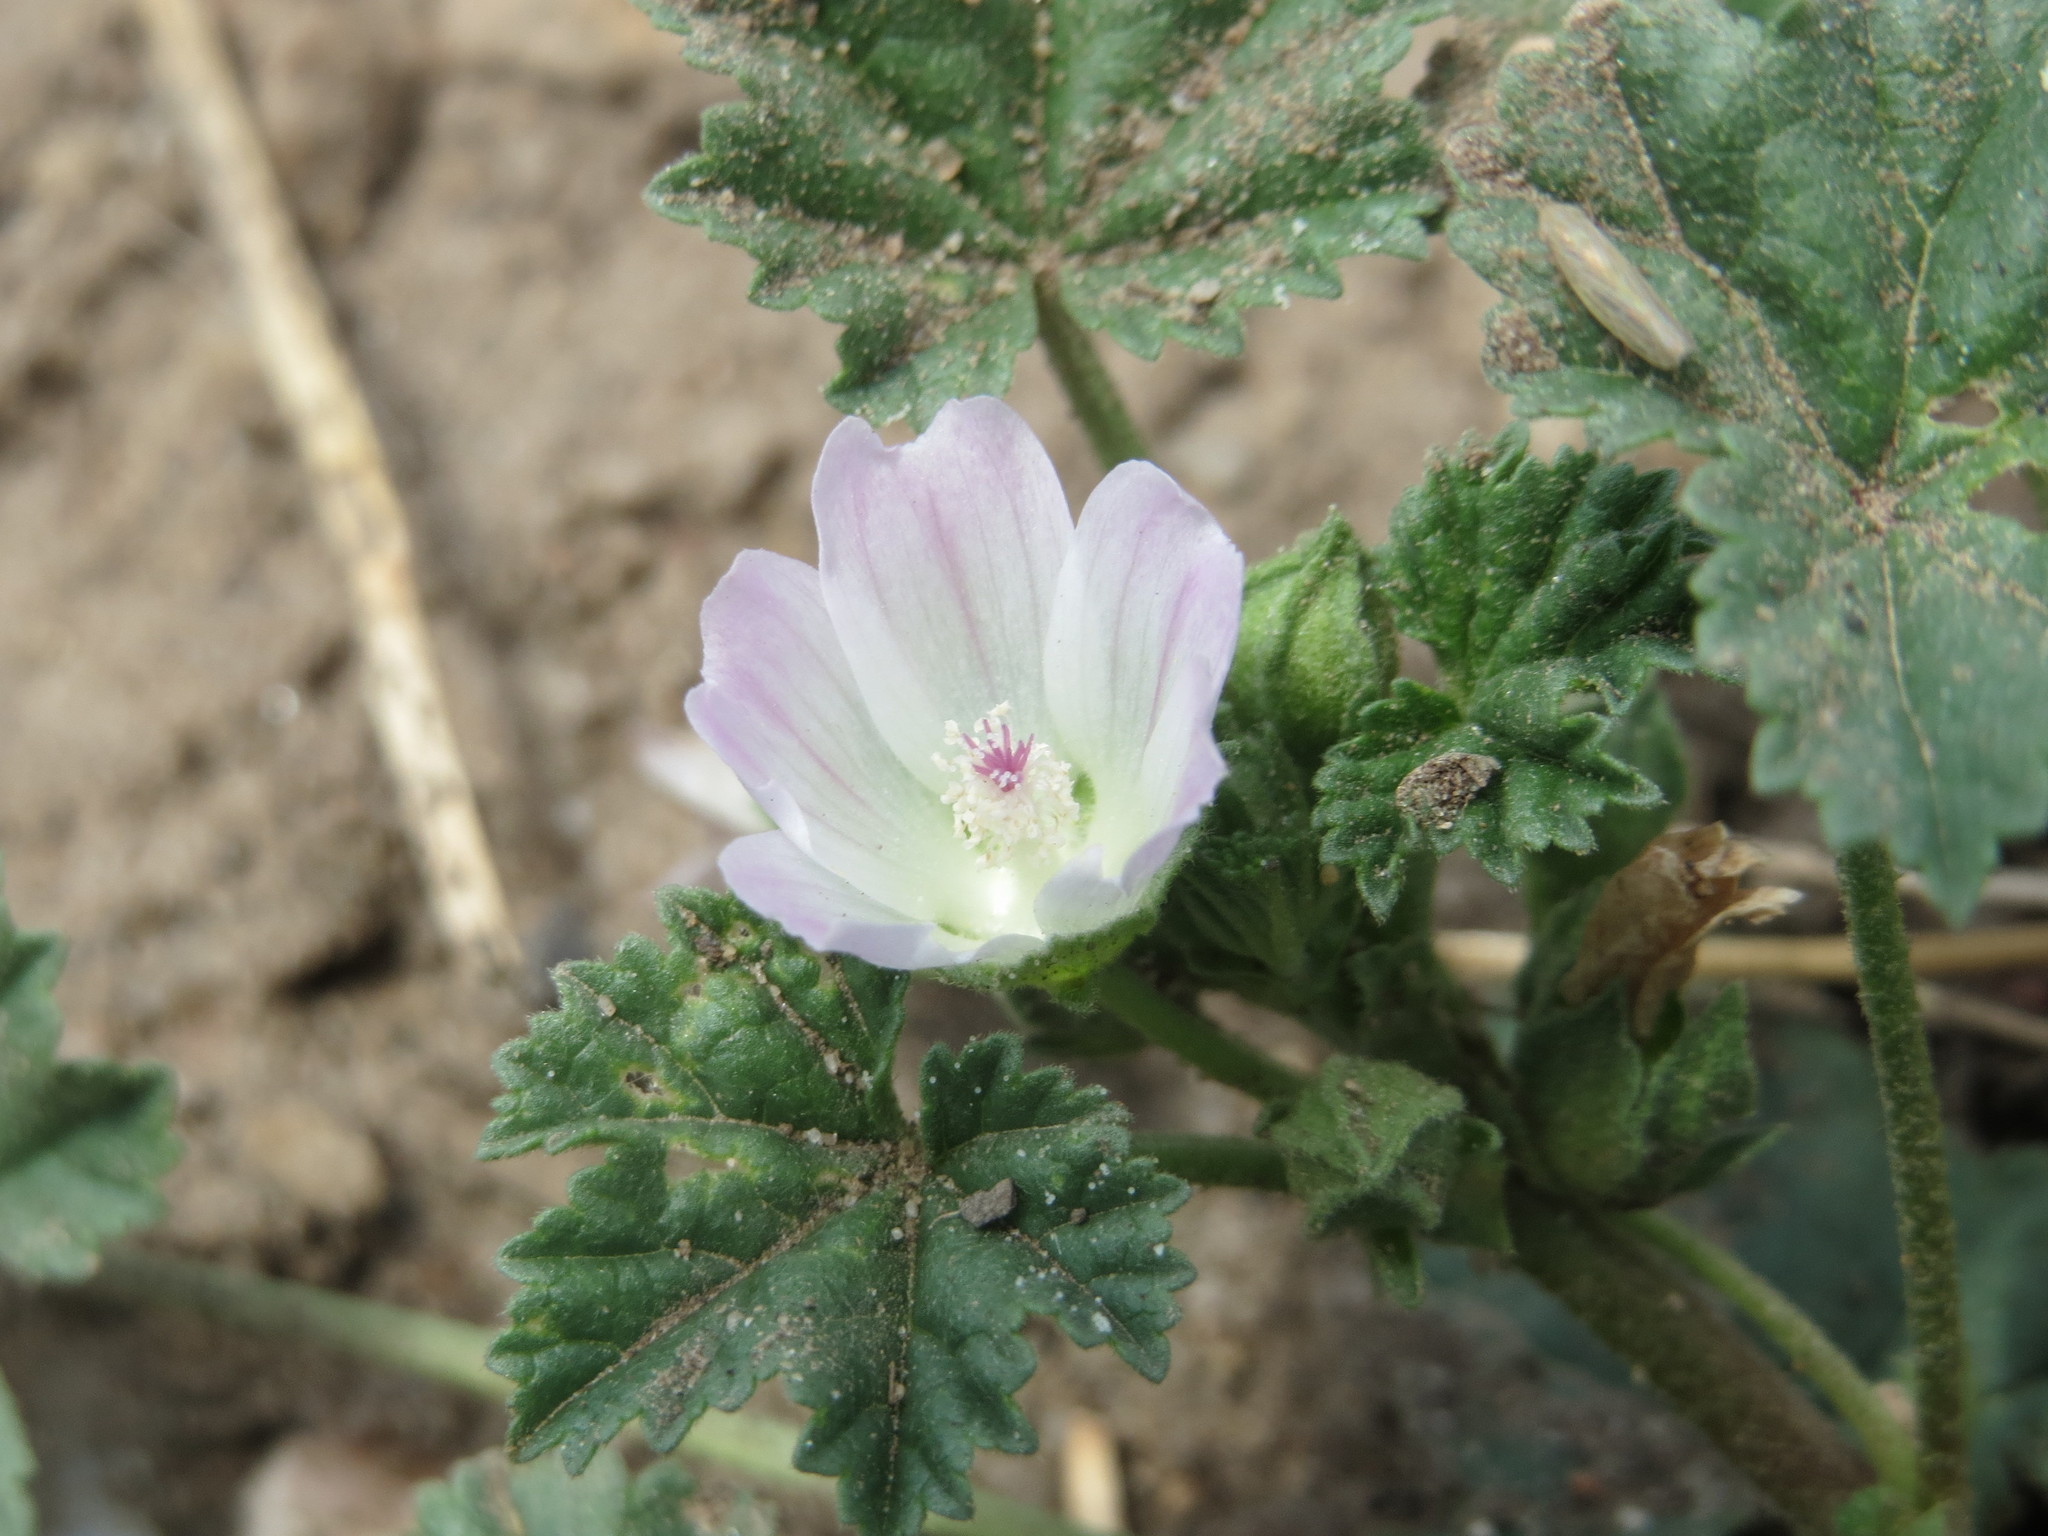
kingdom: Plantae
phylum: Tracheophyta
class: Magnoliopsida
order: Malvales
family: Malvaceae
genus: Malva
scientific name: Malva neglecta
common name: Common mallow
